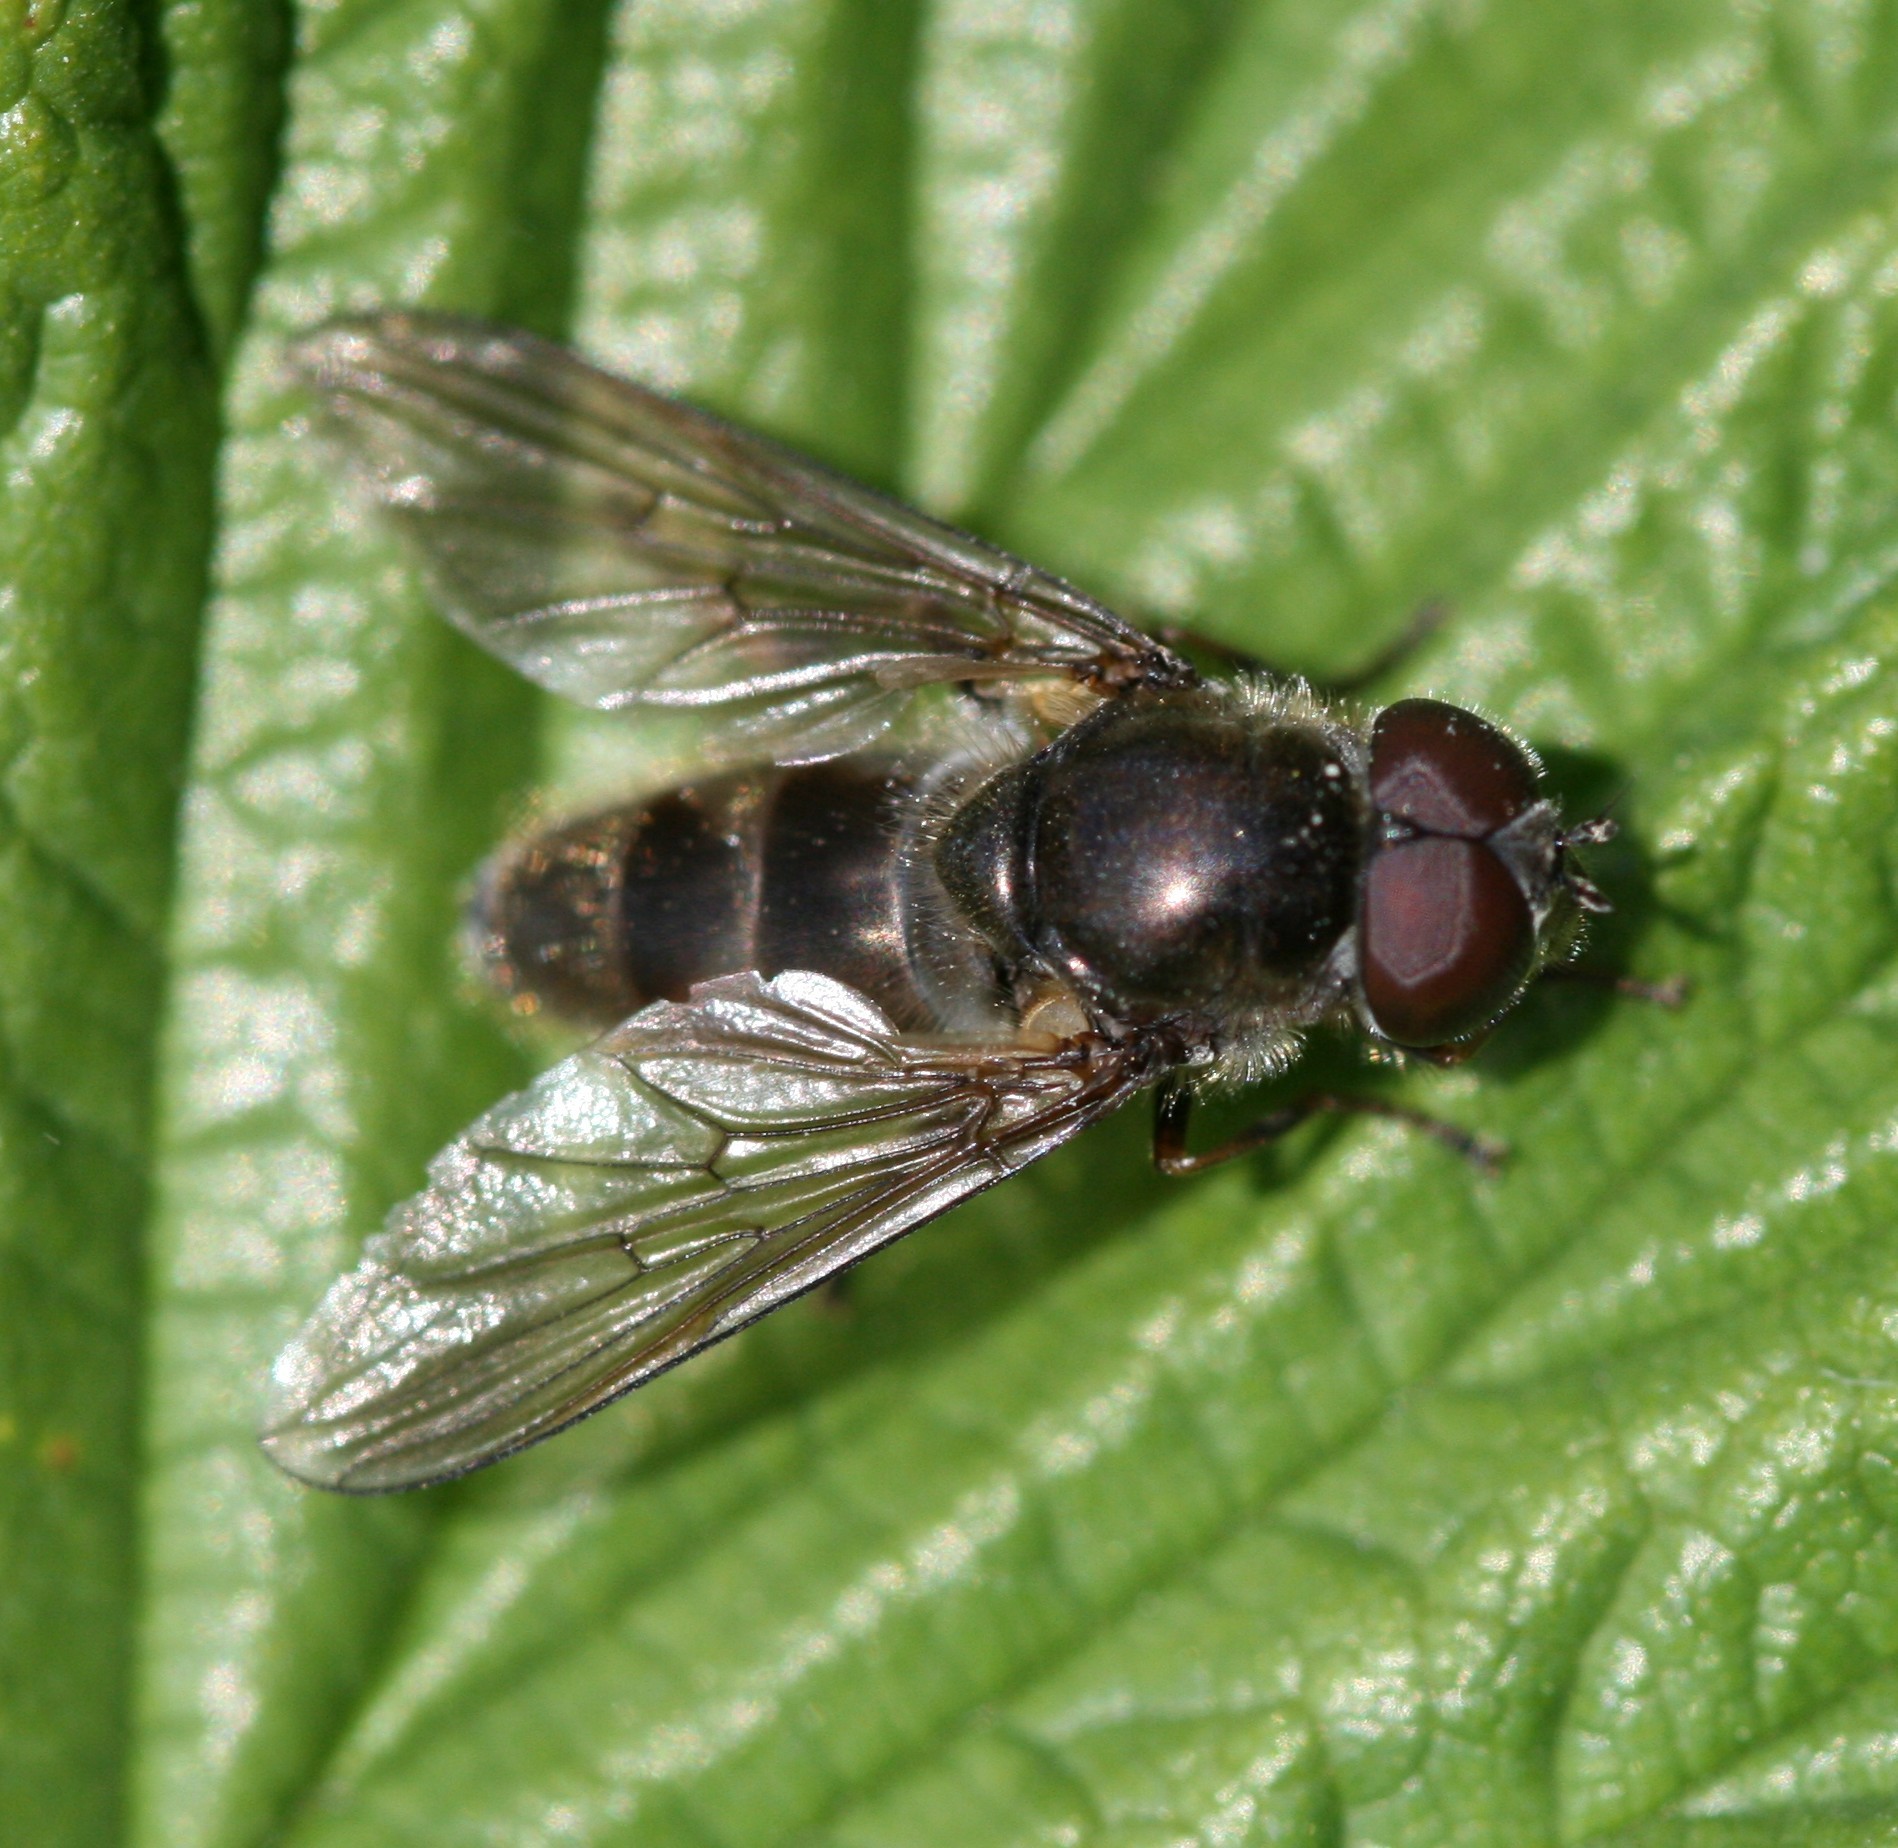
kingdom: Animalia
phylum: Arthropoda
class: Insecta
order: Diptera
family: Syrphidae
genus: Cheilosia
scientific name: Cheilosia variabilis
